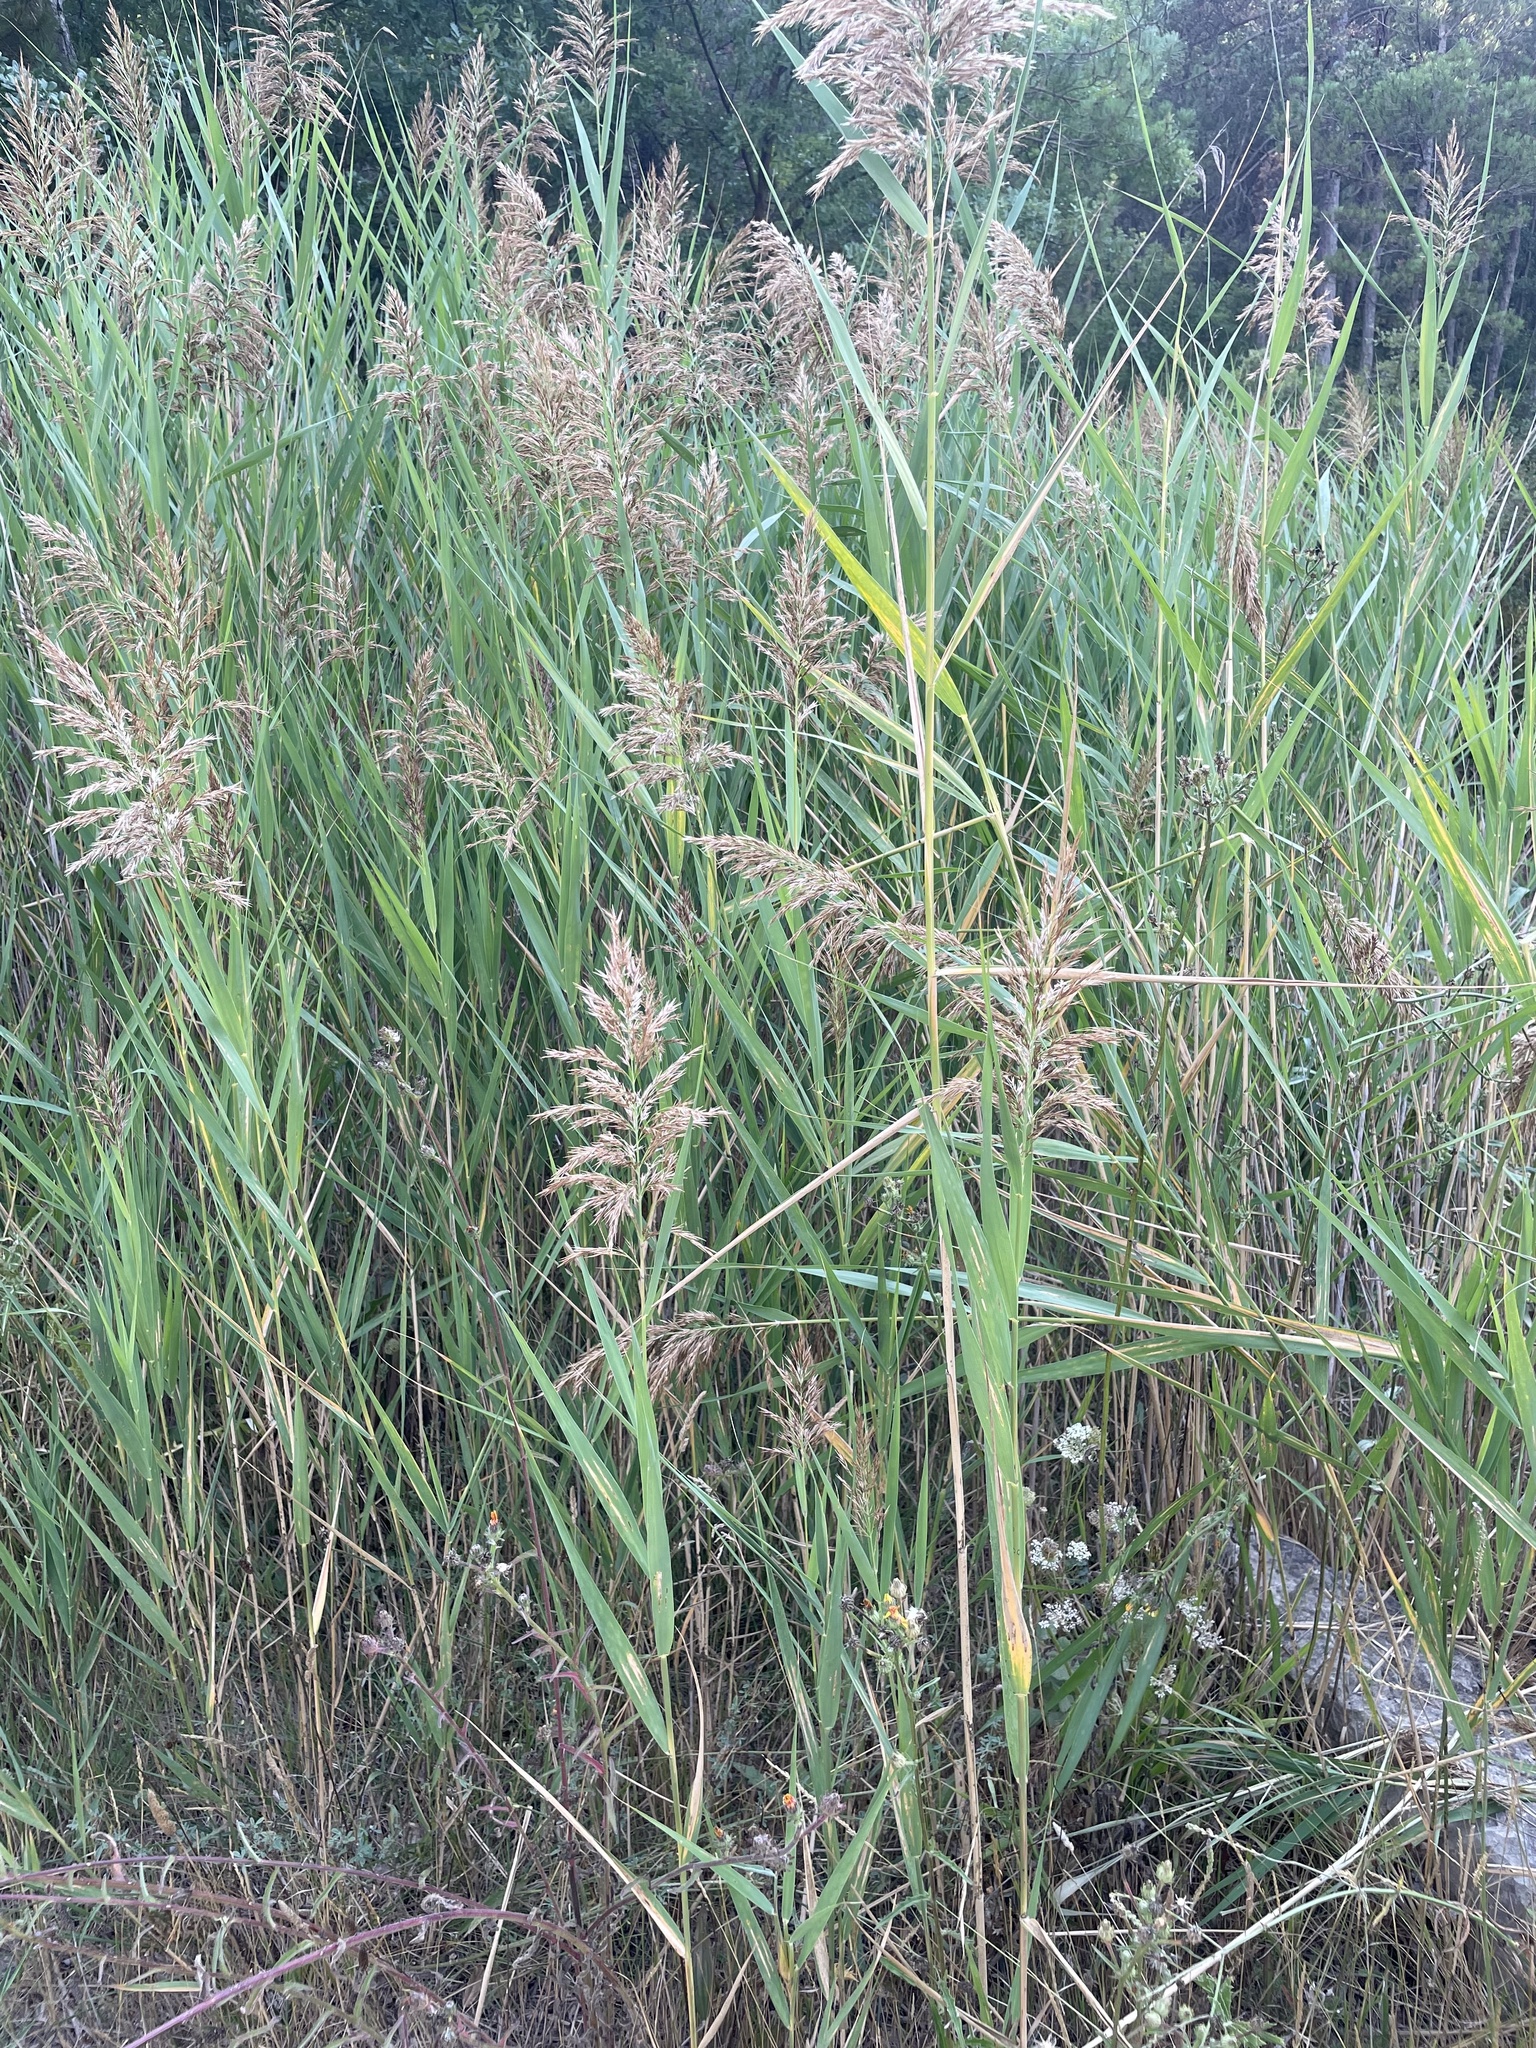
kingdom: Plantae
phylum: Tracheophyta
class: Liliopsida
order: Poales
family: Poaceae
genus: Phragmites
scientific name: Phragmites australis
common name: Common reed
